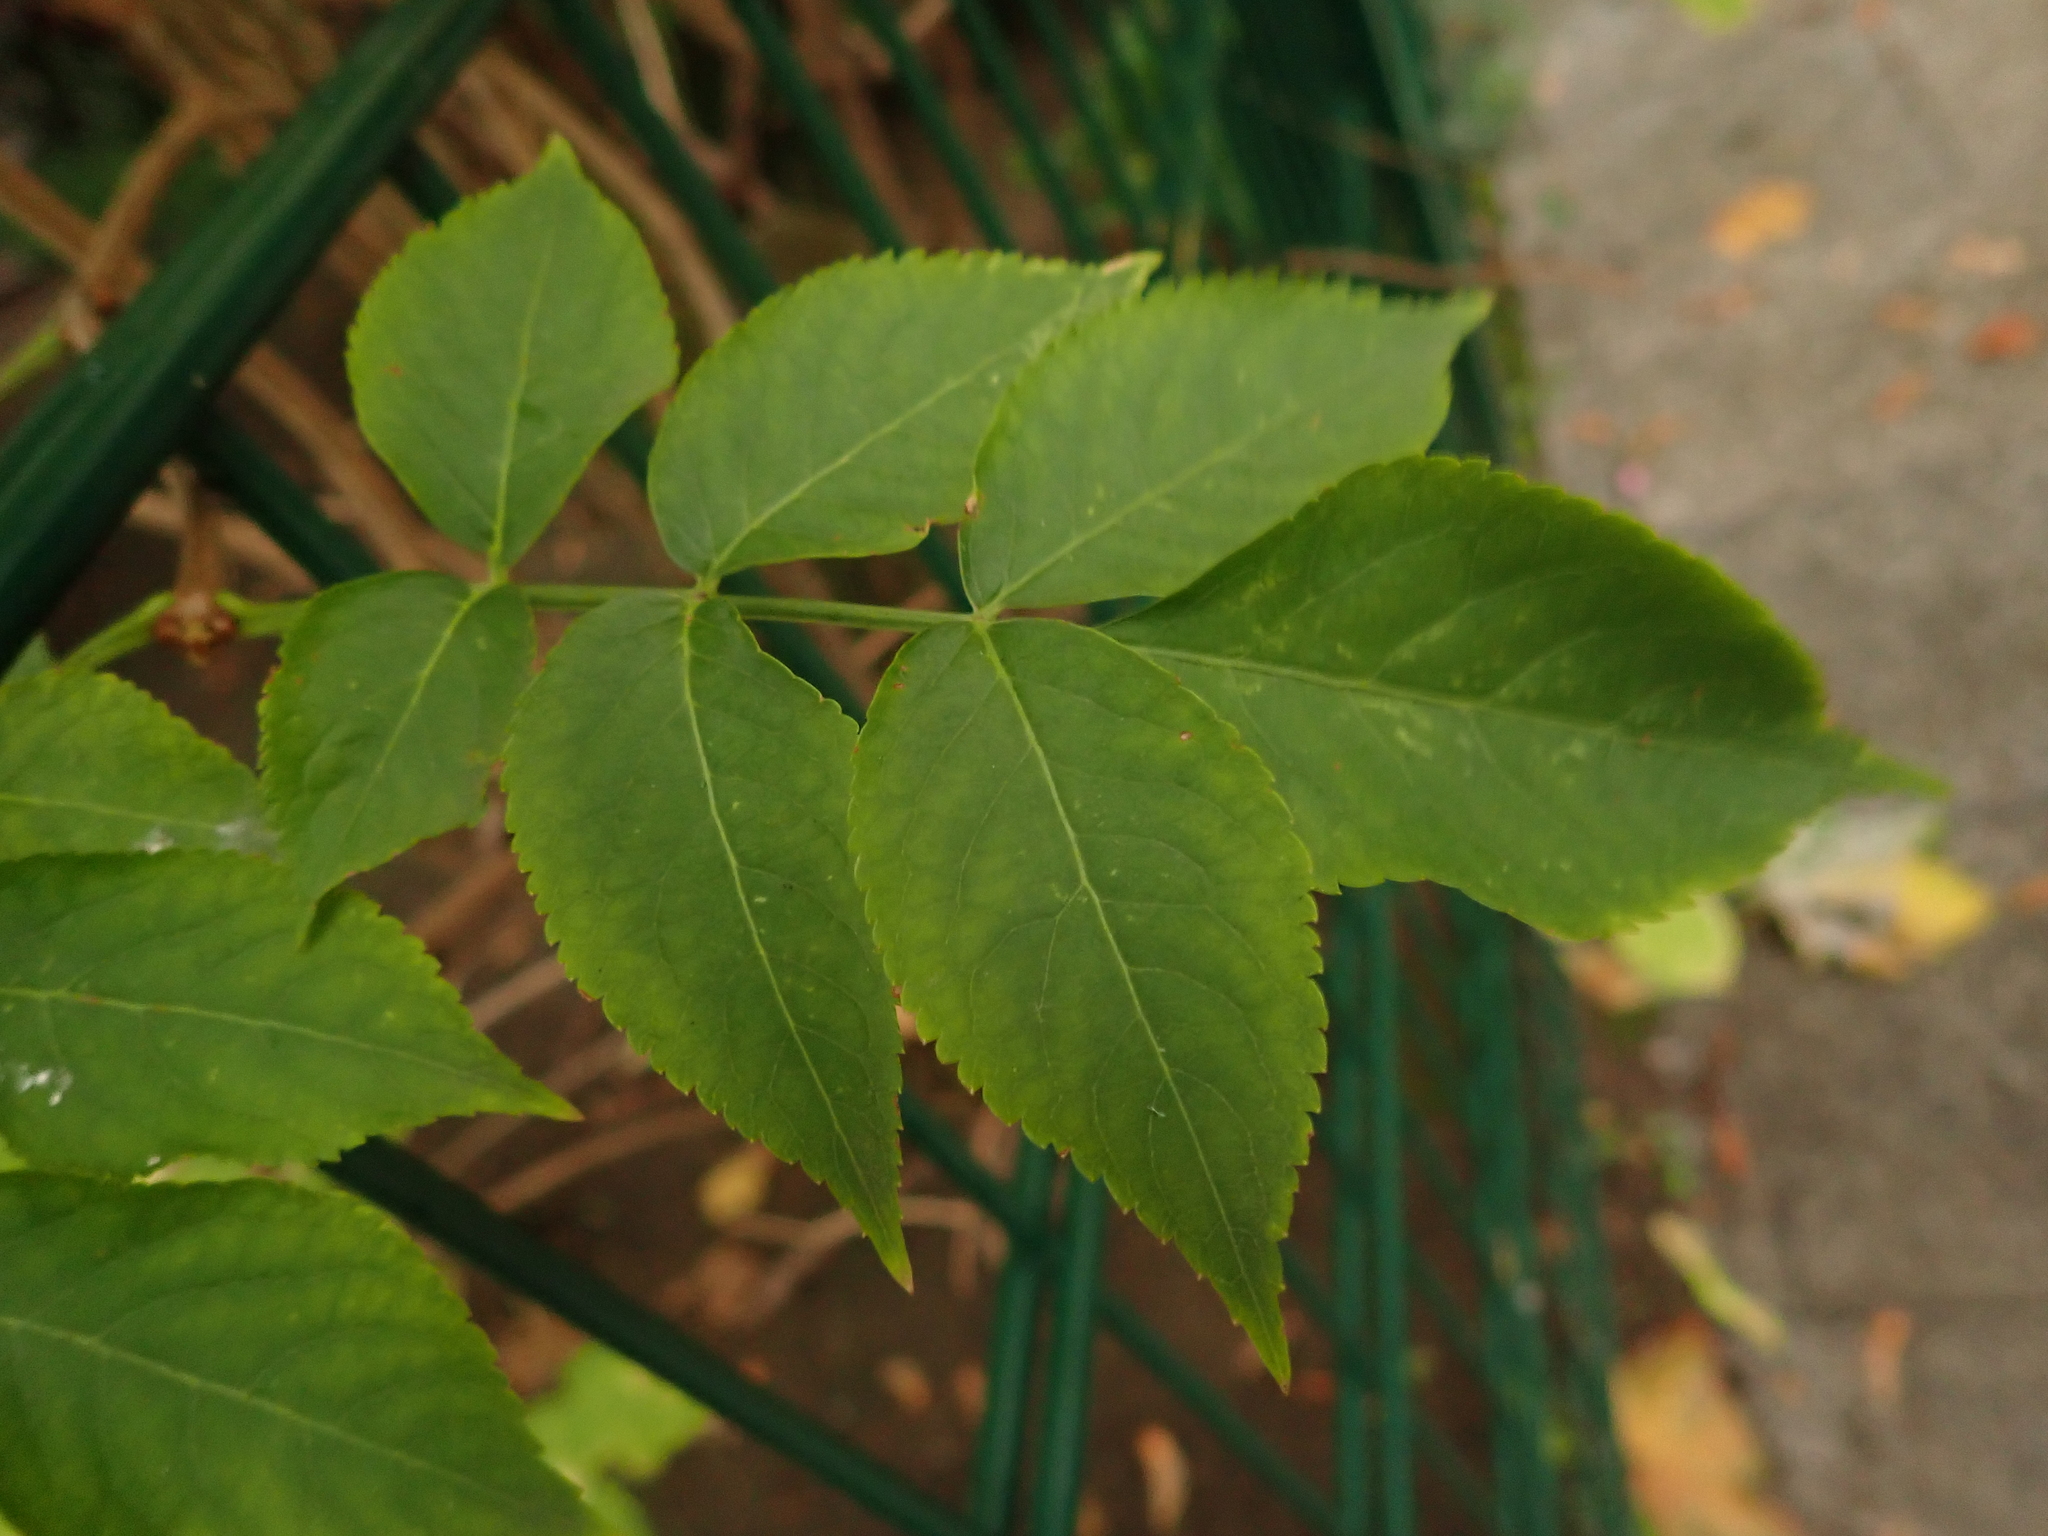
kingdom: Plantae
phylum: Tracheophyta
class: Magnoliopsida
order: Dipsacales
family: Viburnaceae
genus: Sambucus
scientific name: Sambucus nigra
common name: Elder
